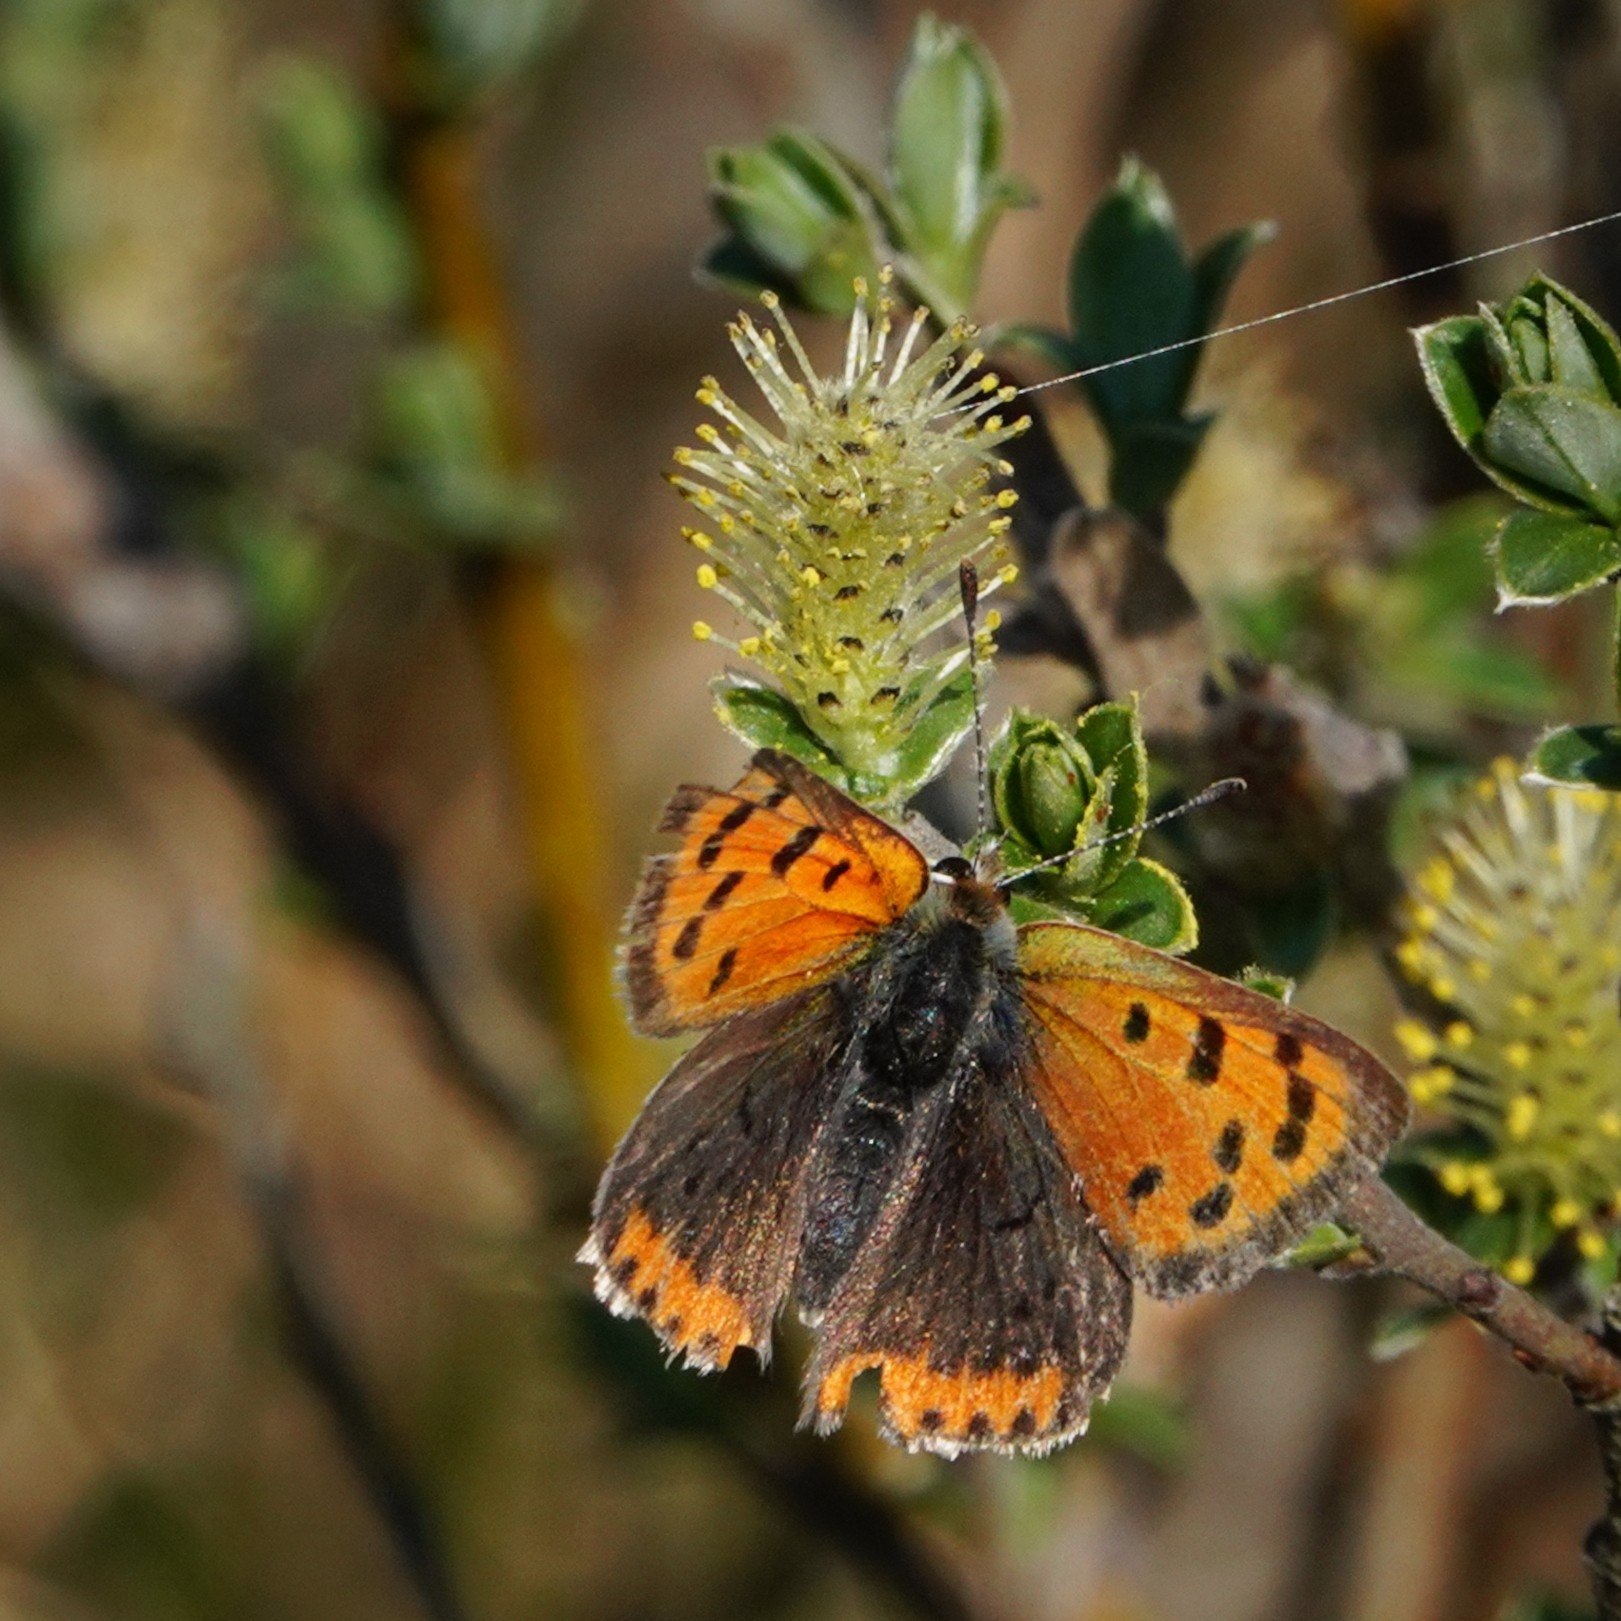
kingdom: Animalia
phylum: Arthropoda
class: Insecta
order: Lepidoptera
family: Lycaenidae
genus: Lycaena
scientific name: Lycaena phlaeas
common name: Small copper
